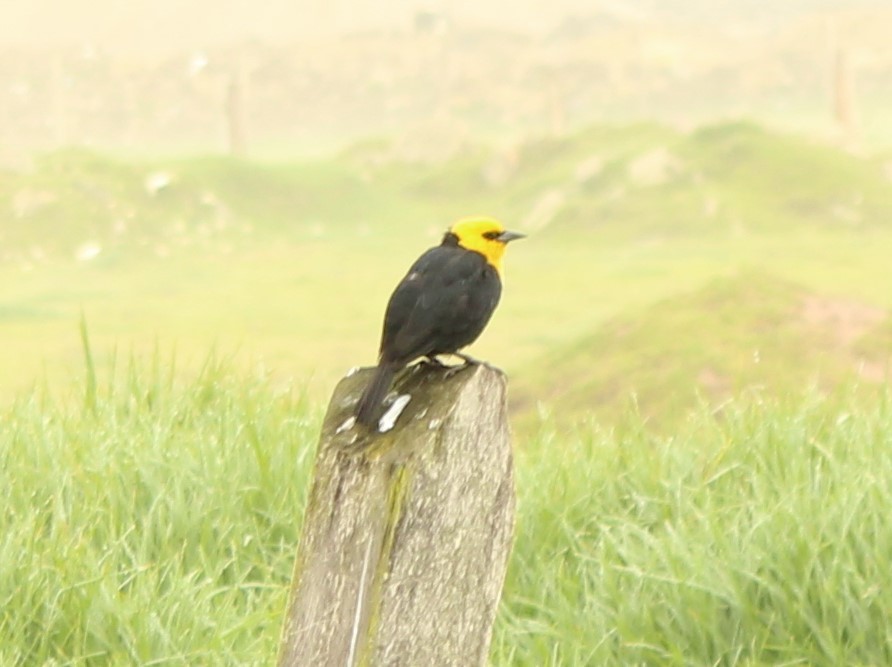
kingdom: Animalia
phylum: Chordata
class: Aves
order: Passeriformes
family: Icteridae
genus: Chrysomus
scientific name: Chrysomus icterocephalus
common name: Yellow-hooded blackbird
